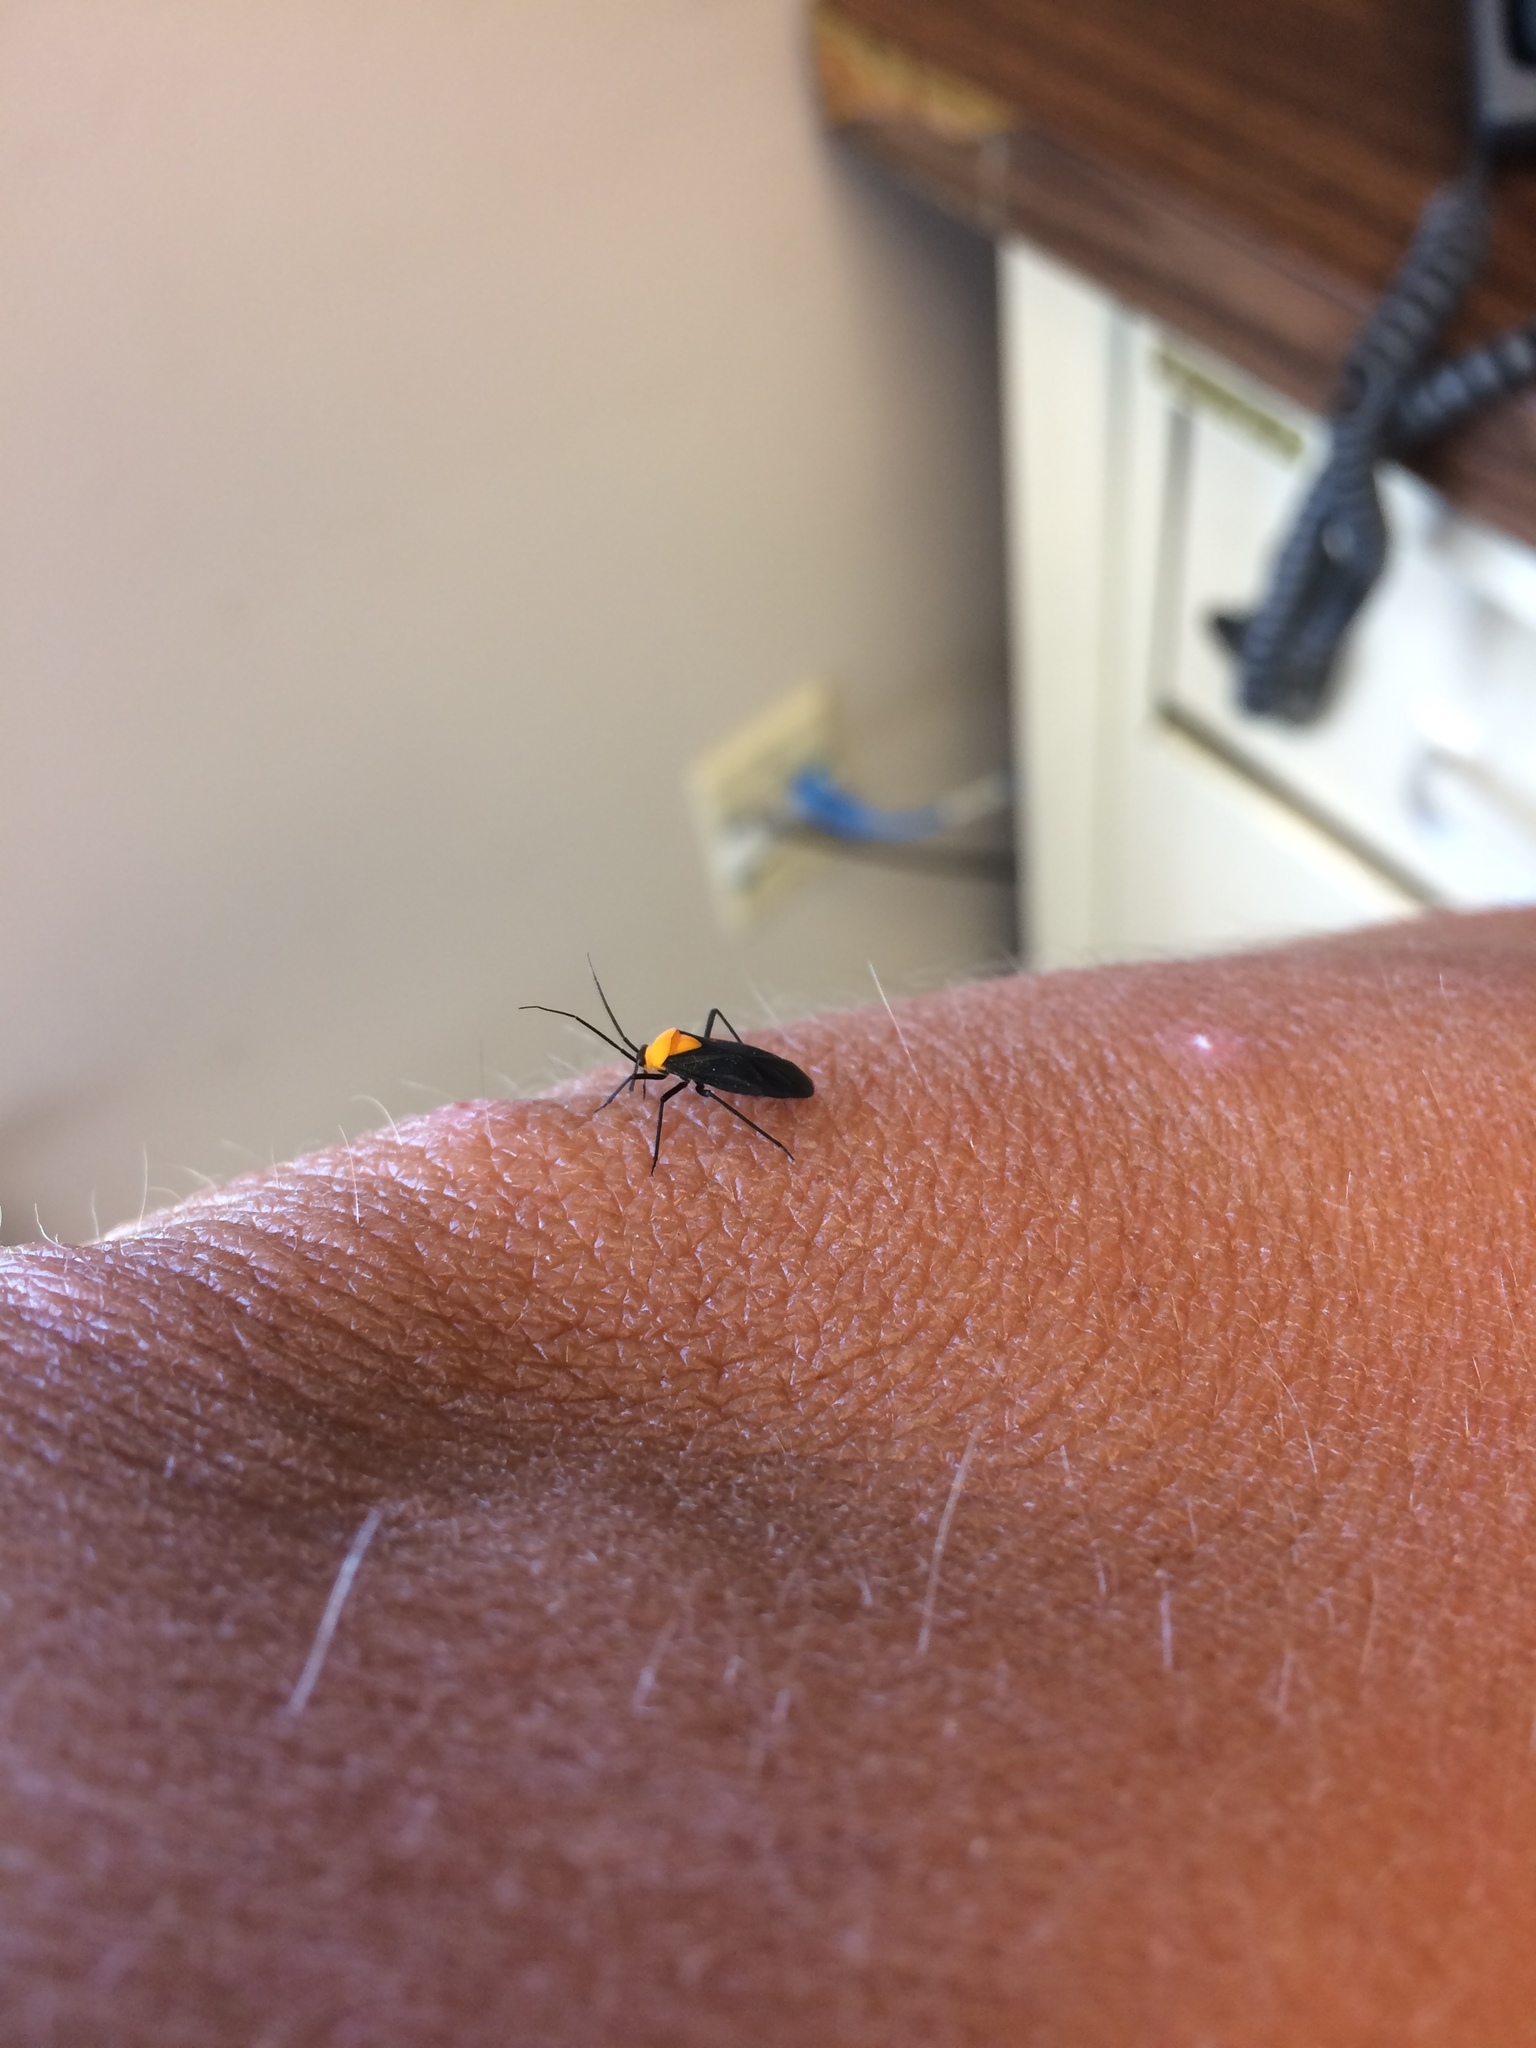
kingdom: Animalia
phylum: Arthropoda
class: Insecta
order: Hemiptera
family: Miridae
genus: Prepops
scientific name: Prepops insitivus
